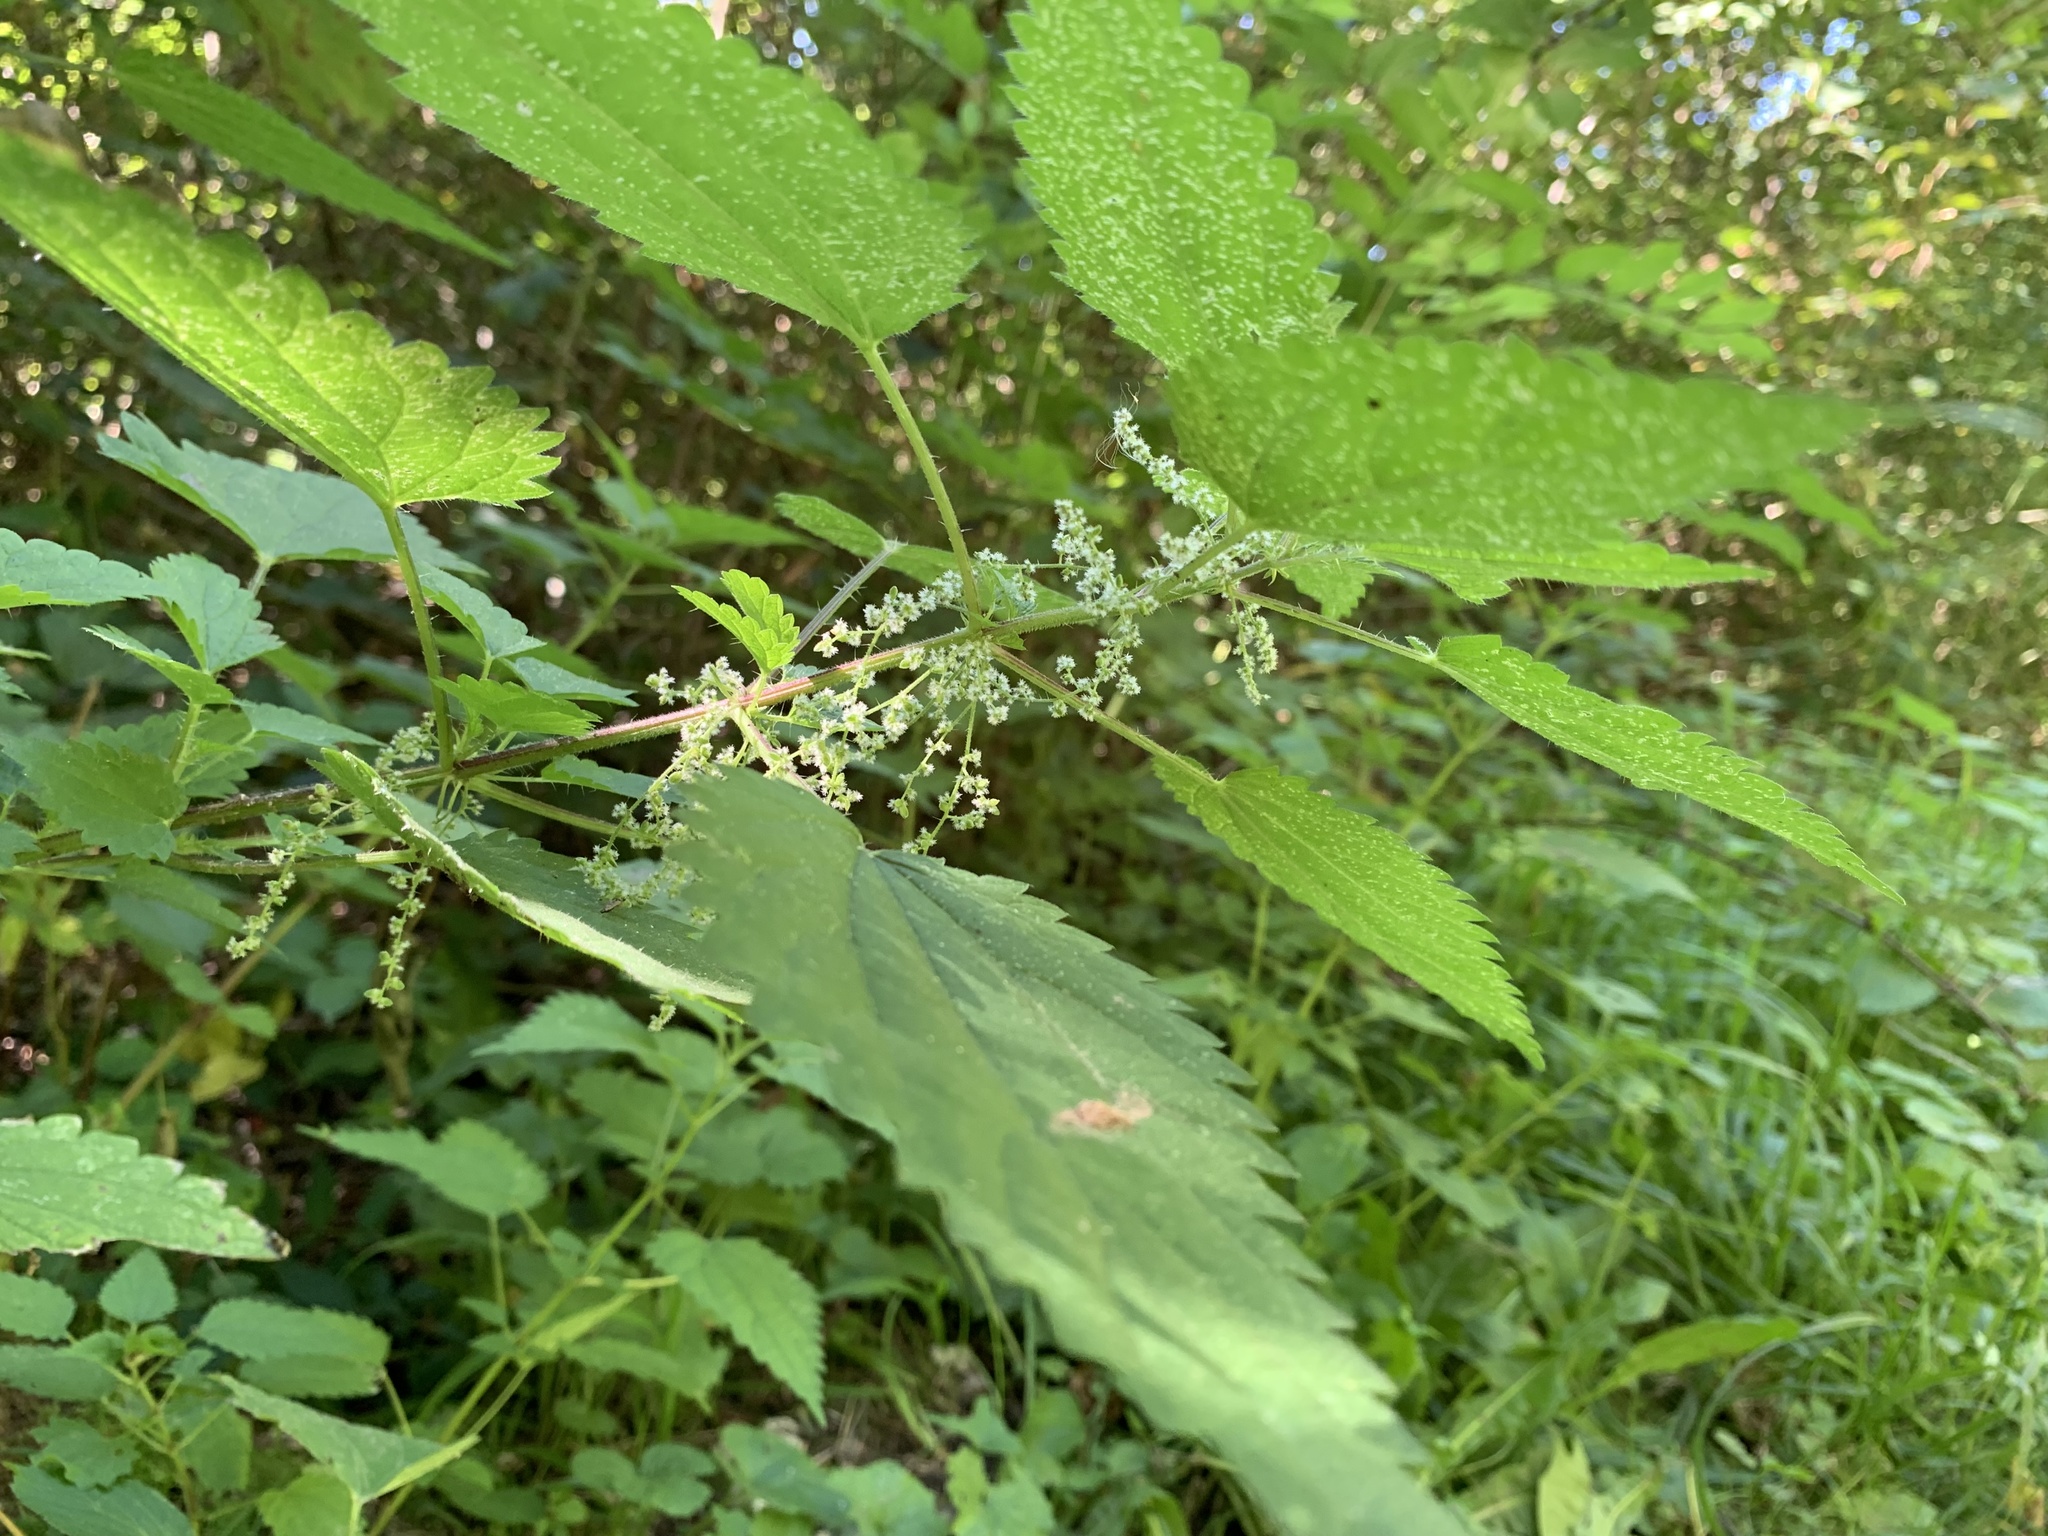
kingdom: Plantae
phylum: Tracheophyta
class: Magnoliopsida
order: Rosales
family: Urticaceae
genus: Urtica
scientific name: Urtica dioica
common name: Common nettle
